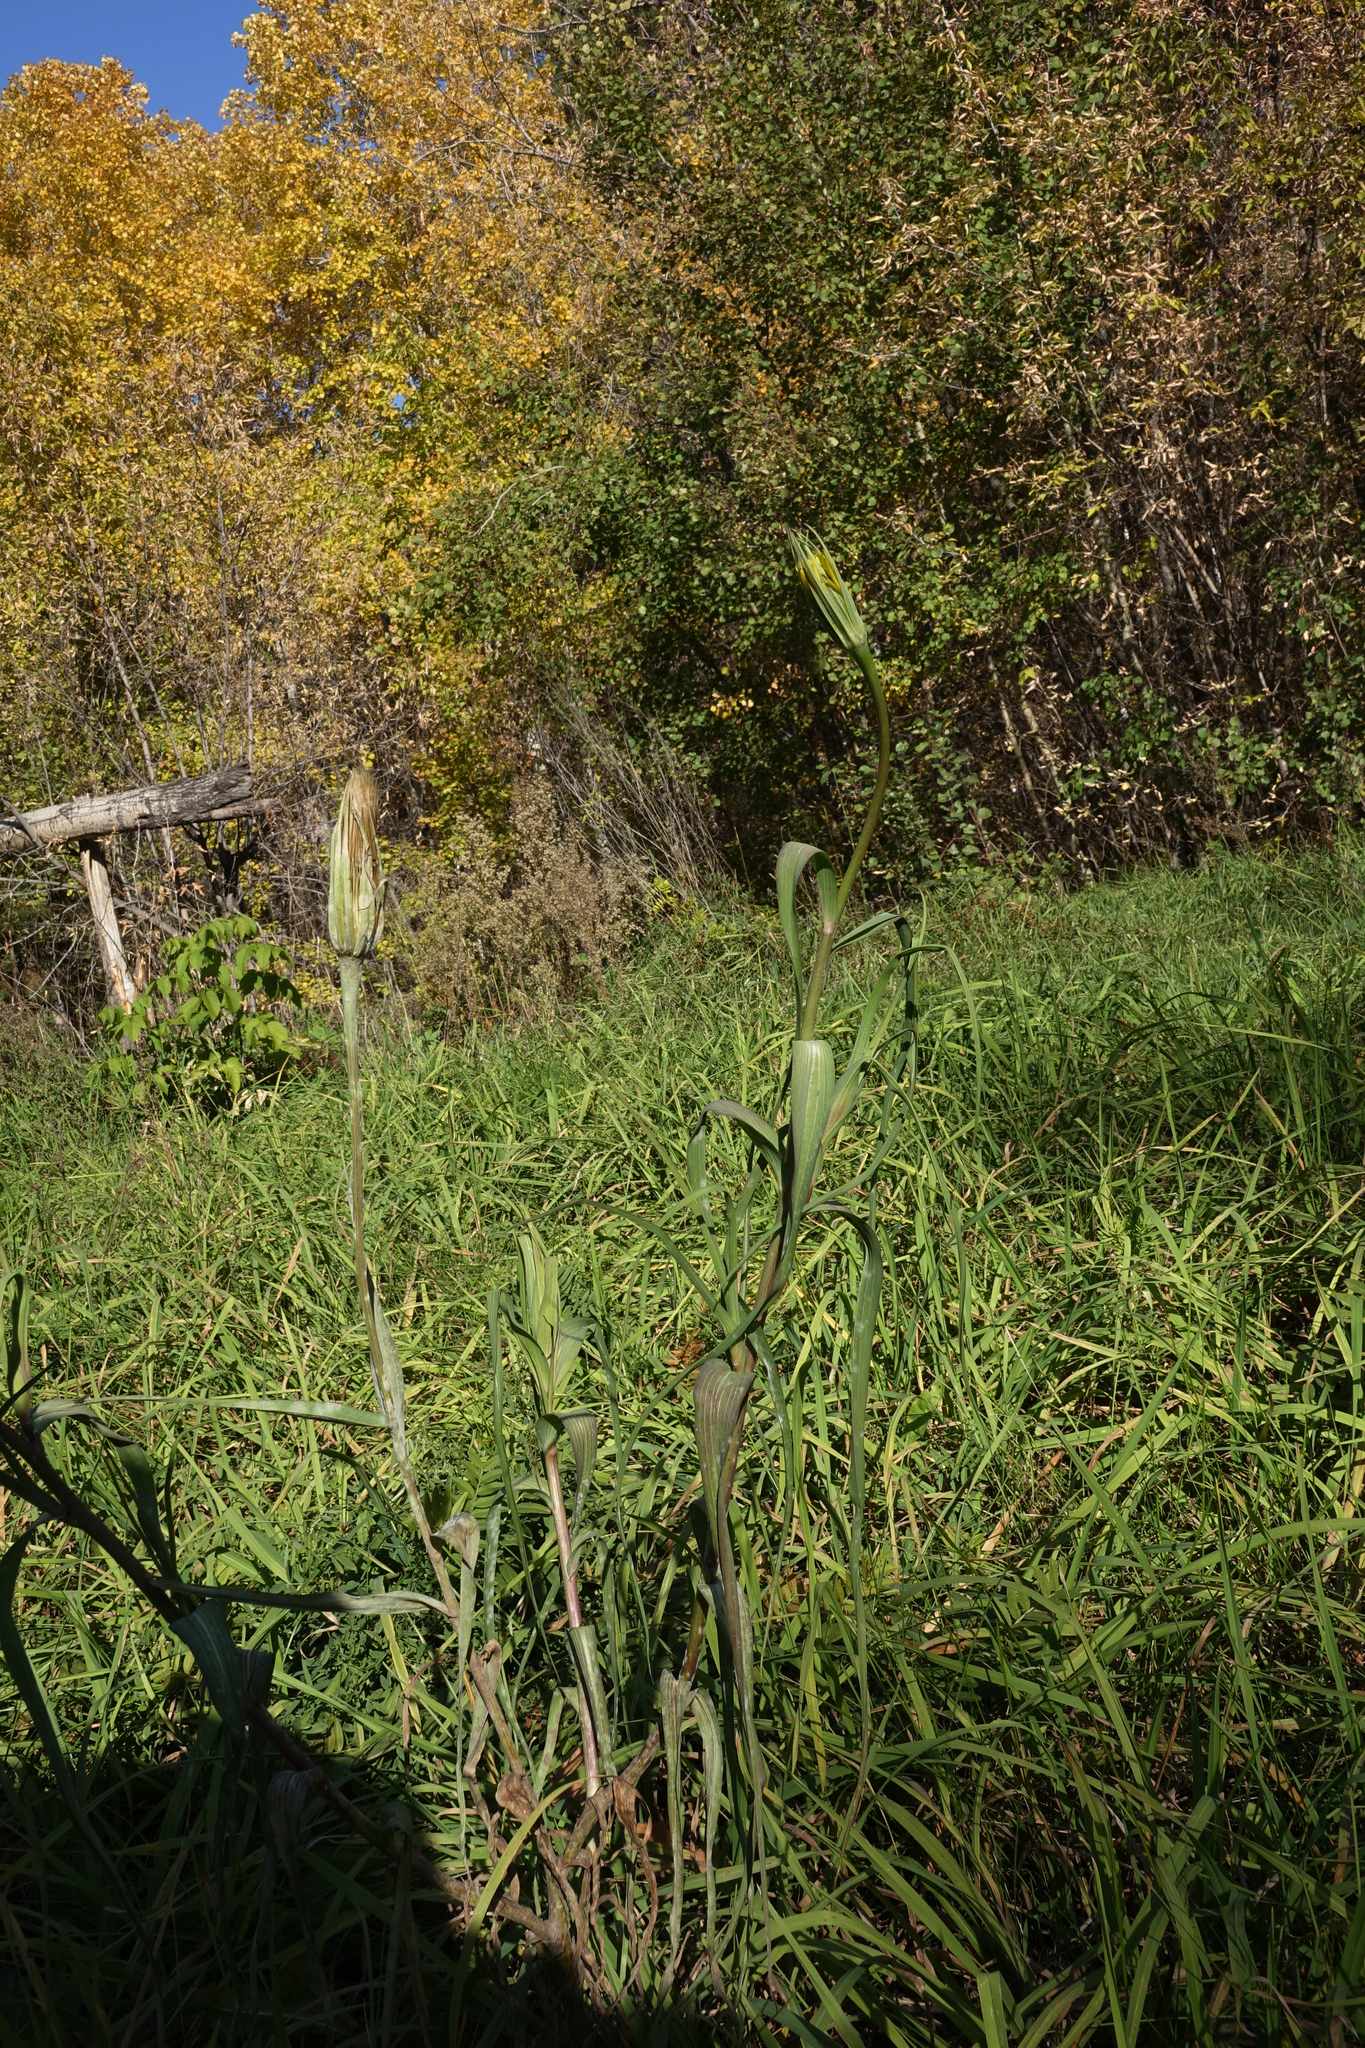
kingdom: Plantae
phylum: Tracheophyta
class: Magnoliopsida
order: Asterales
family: Asteraceae
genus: Tragopogon
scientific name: Tragopogon dubius
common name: Yellow salsify
